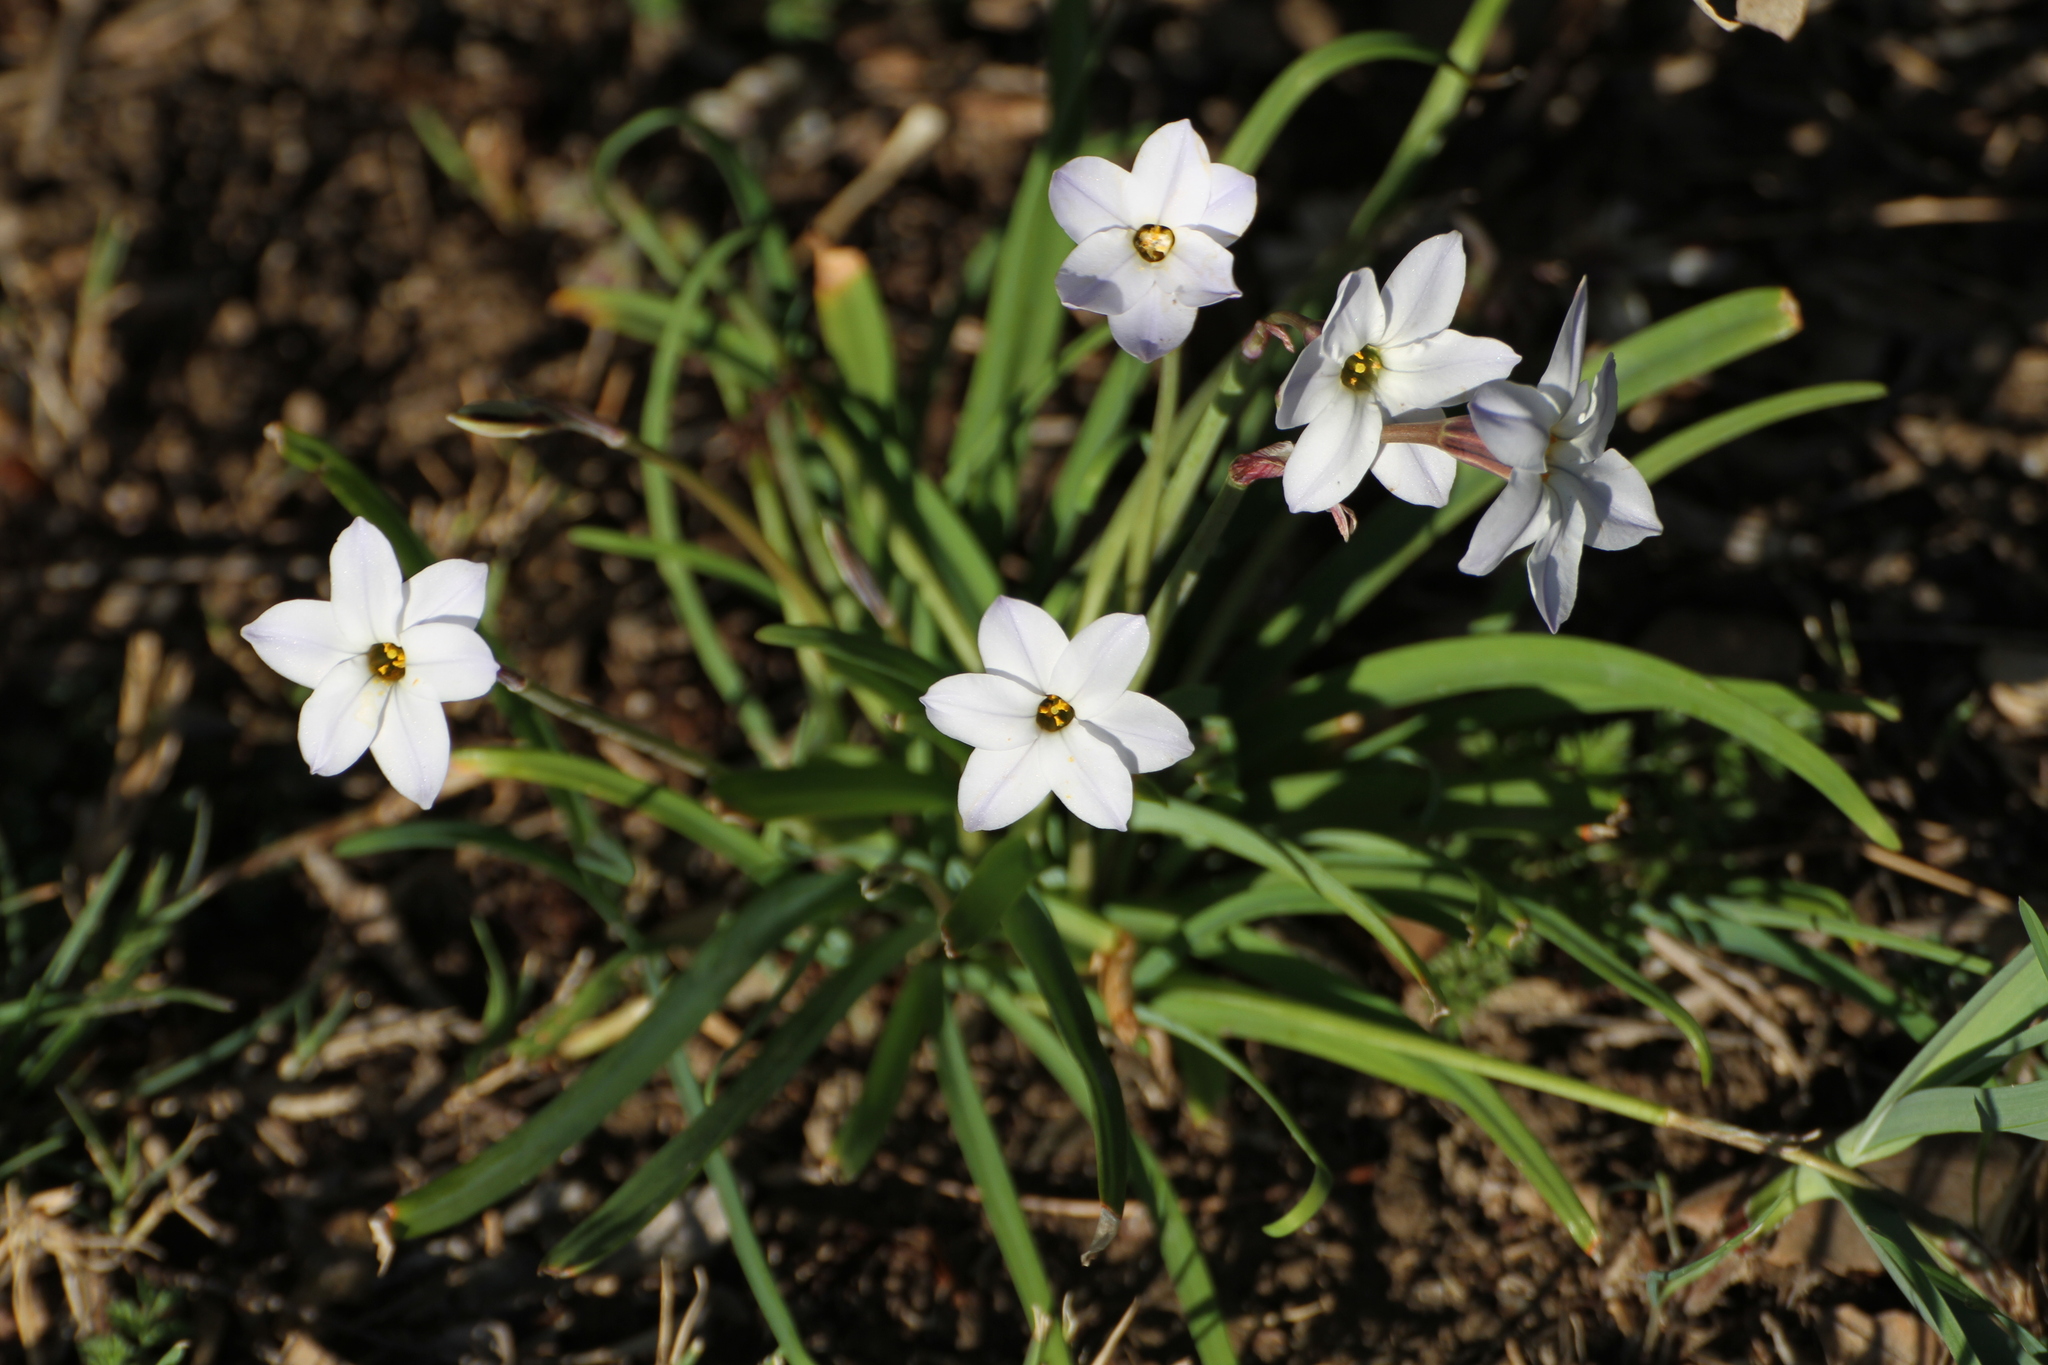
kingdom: Plantae
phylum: Tracheophyta
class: Liliopsida
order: Asparagales
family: Amaryllidaceae
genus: Ipheion
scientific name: Ipheion uniflorum
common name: Spring starflower
